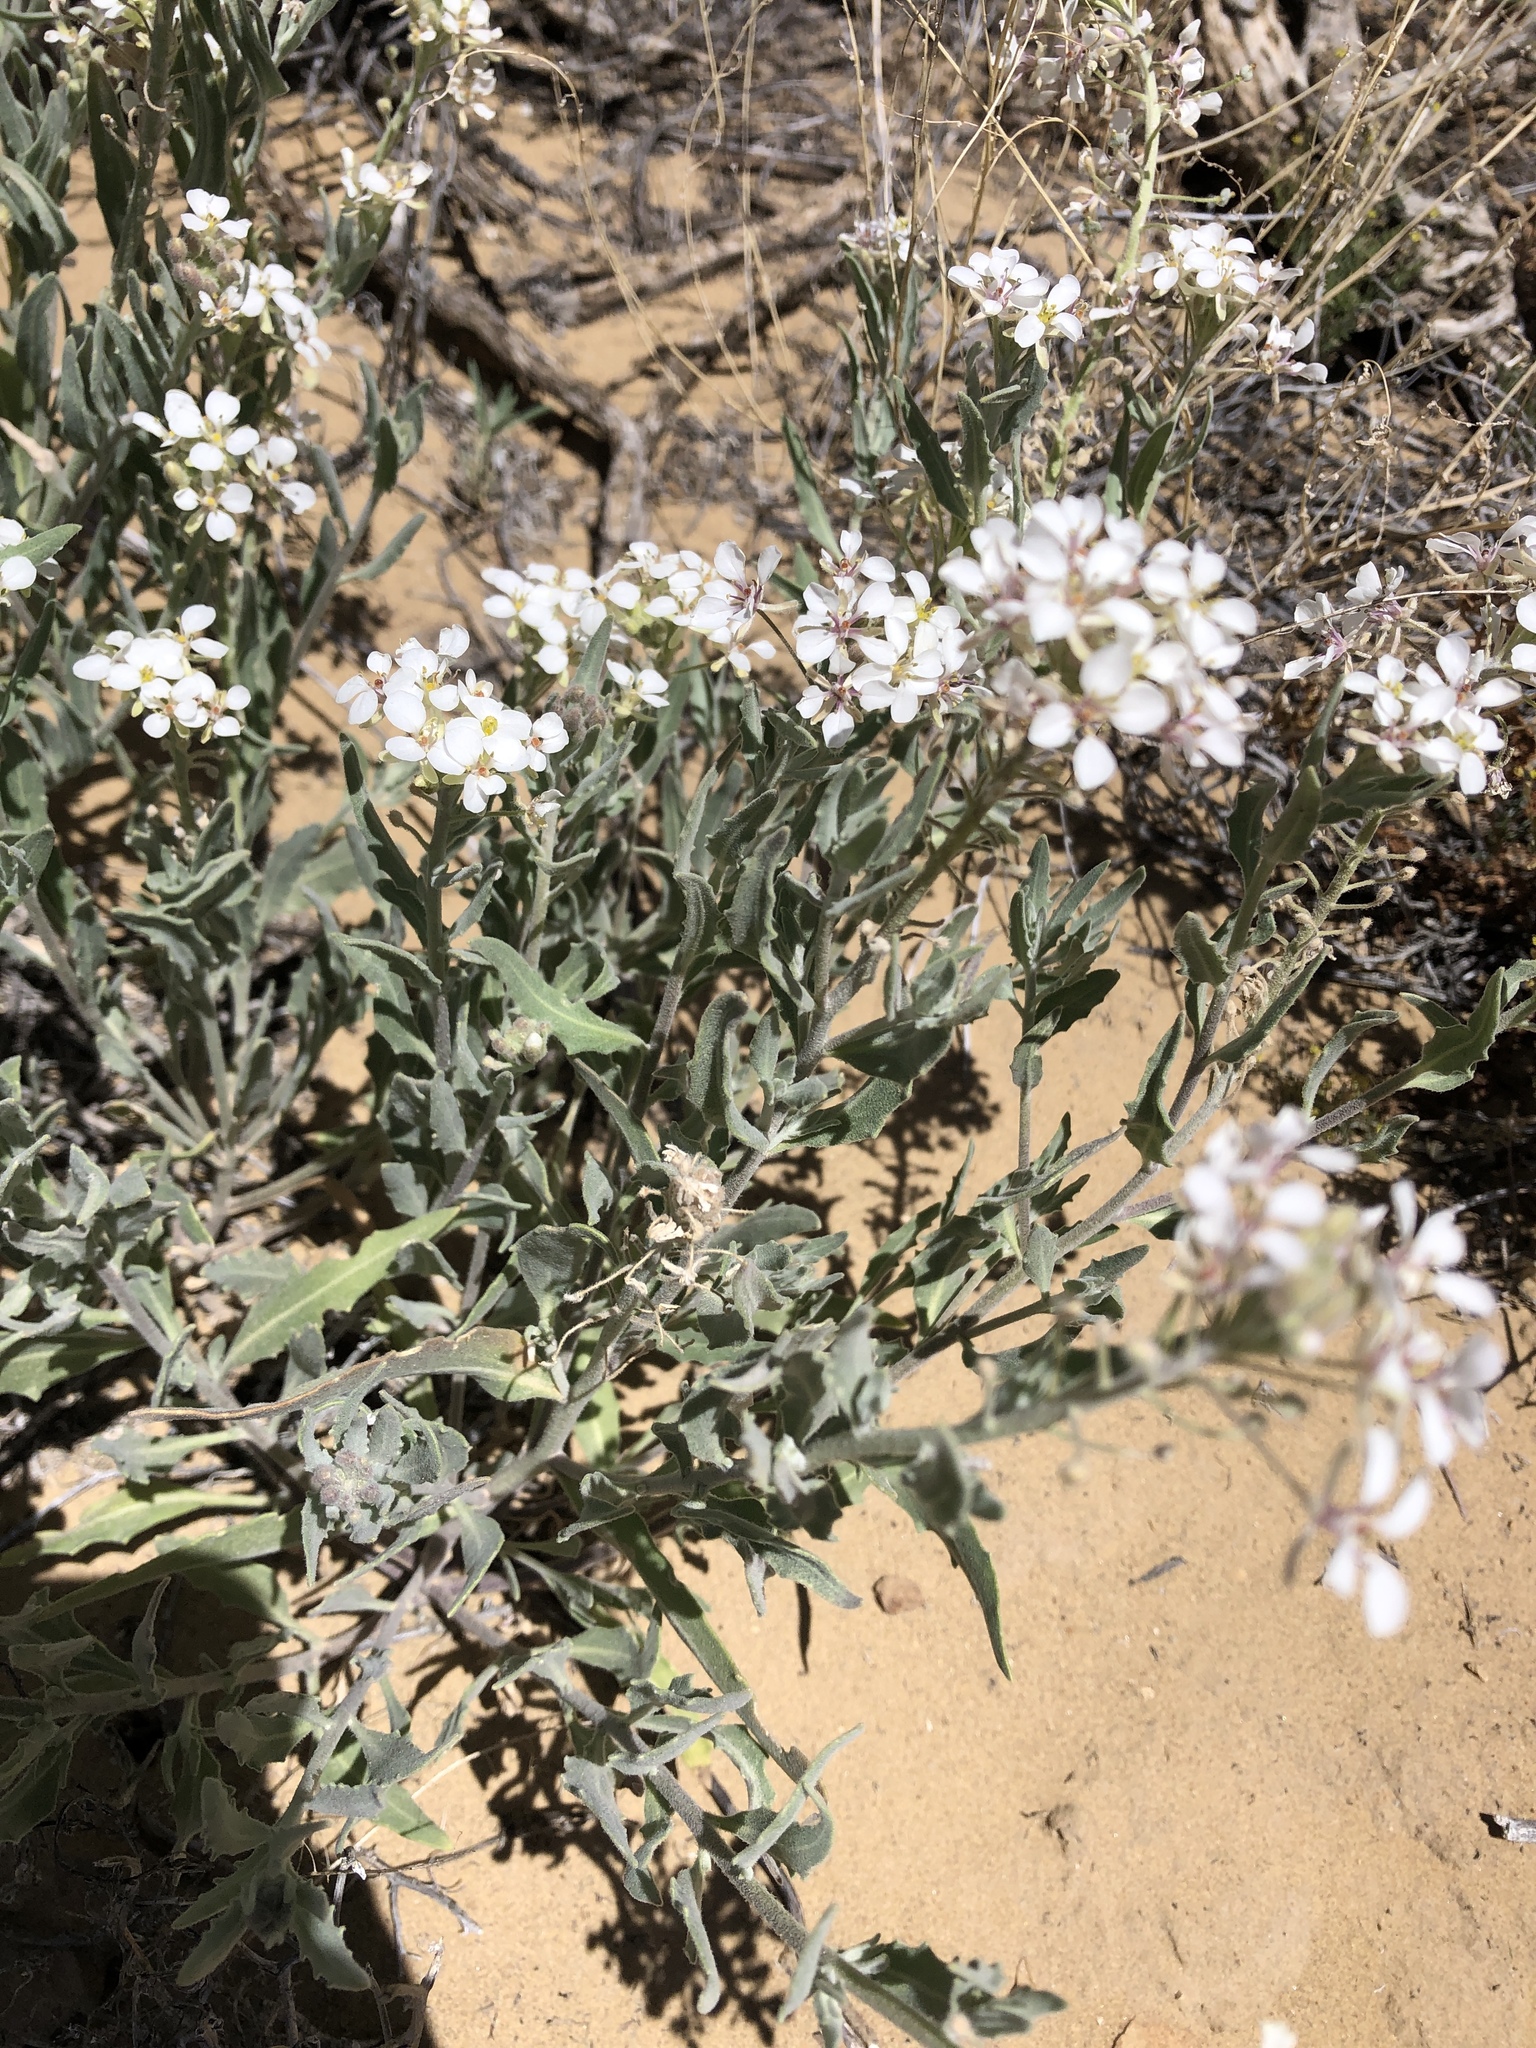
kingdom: Plantae
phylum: Tracheophyta
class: Magnoliopsida
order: Brassicales
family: Brassicaceae
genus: Dimorphocarpa
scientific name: Dimorphocarpa wislizenii
